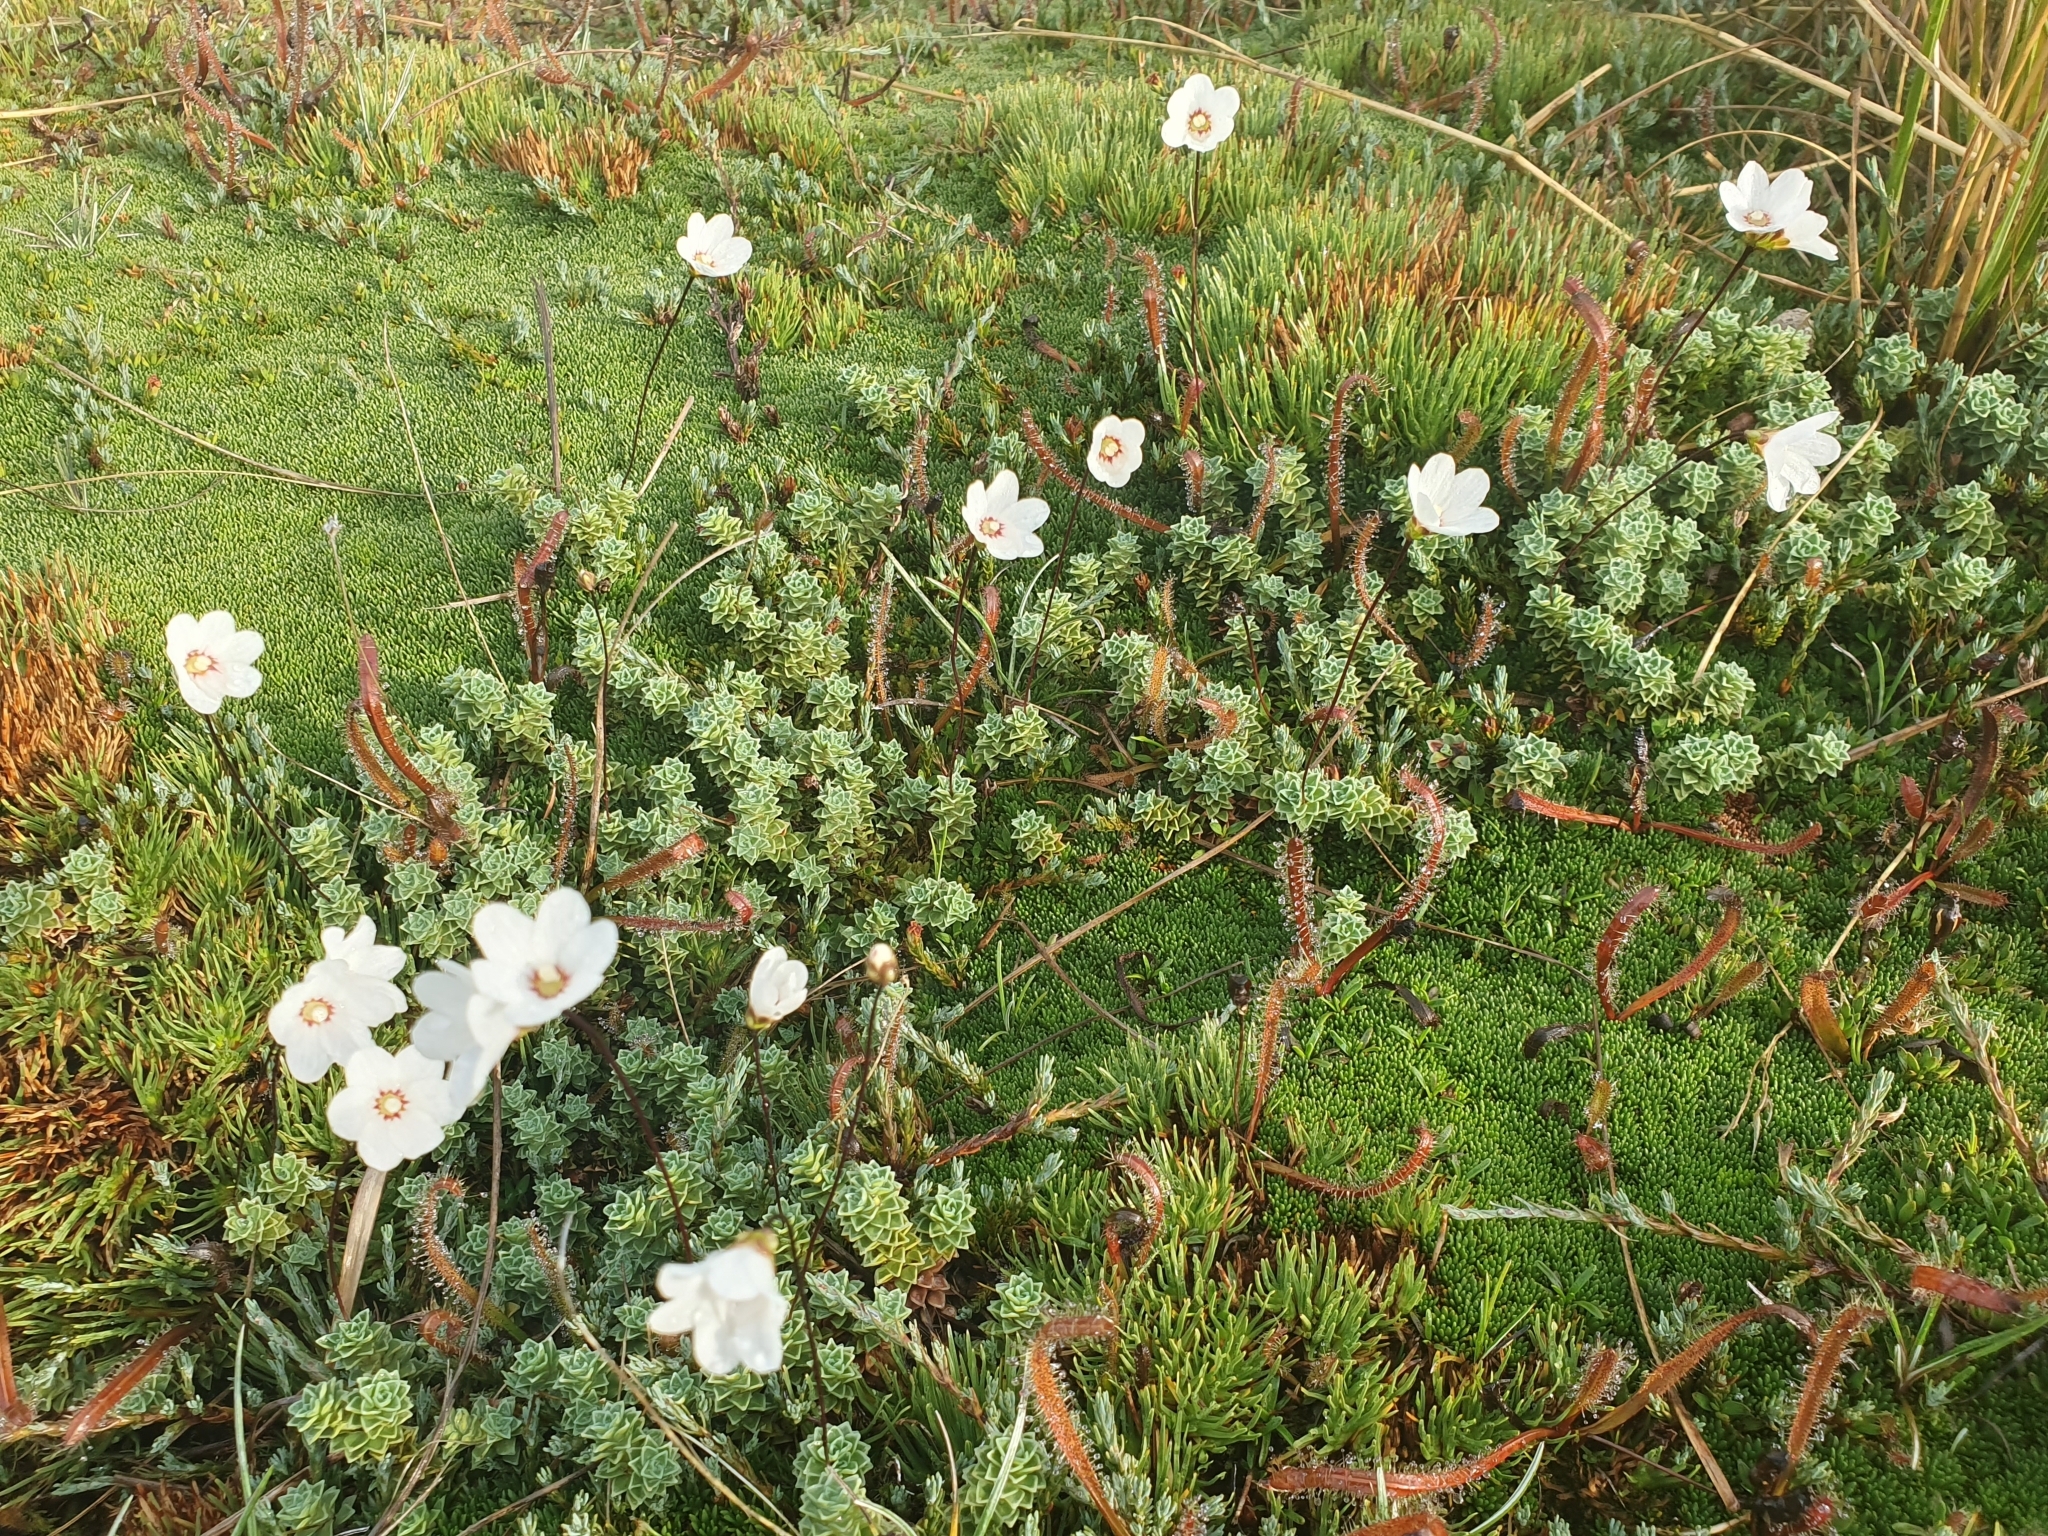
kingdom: Plantae
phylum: Tracheophyta
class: Magnoliopsida
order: Asterales
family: Stylidiaceae
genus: Forstera
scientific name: Forstera sedifolia
